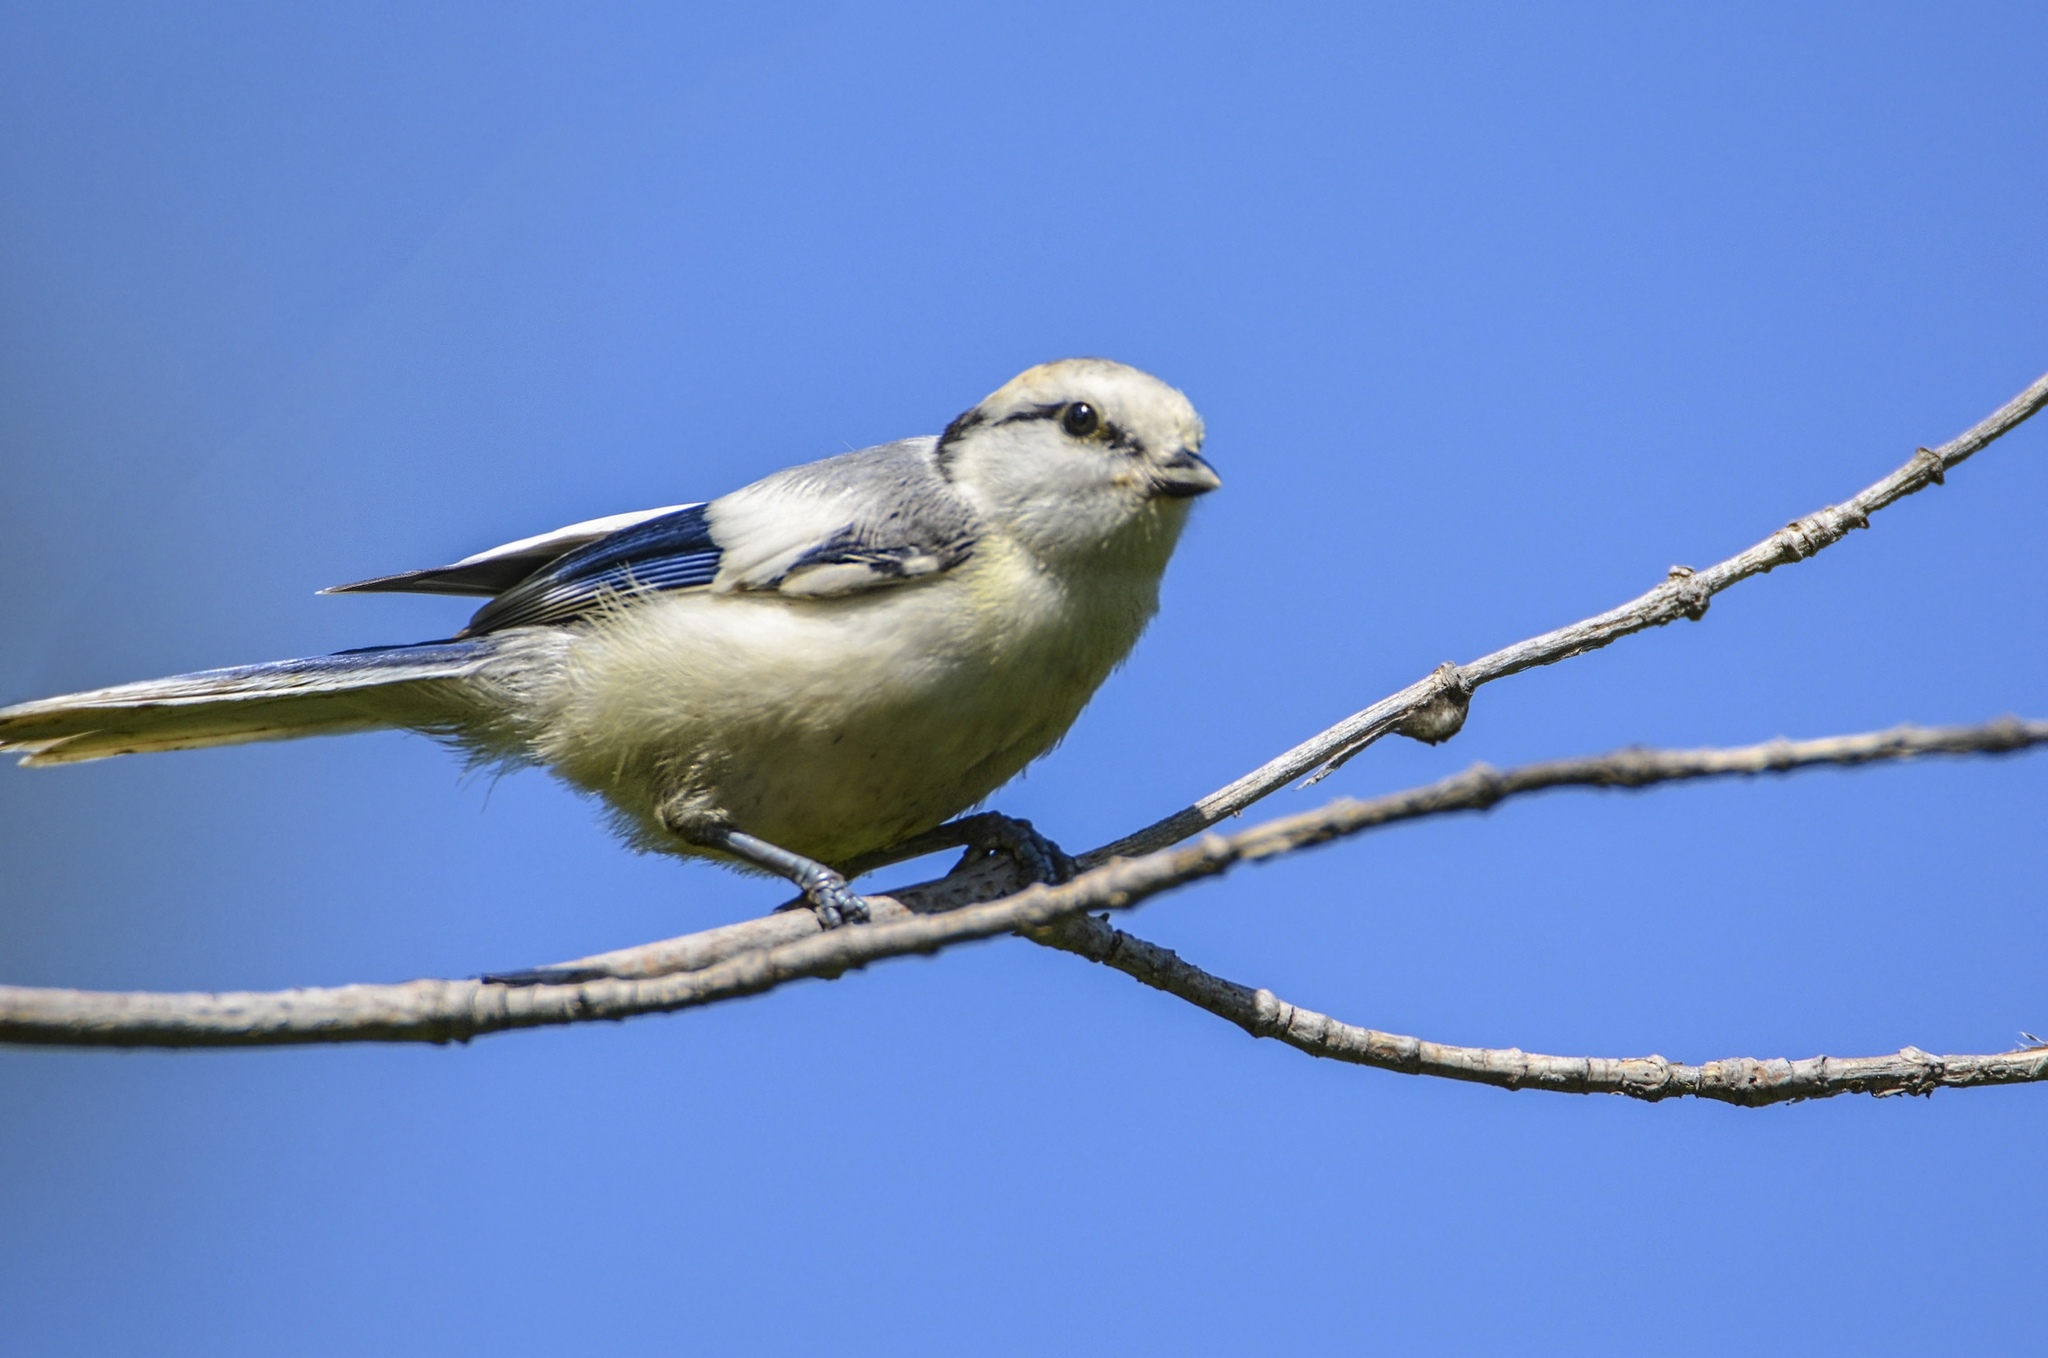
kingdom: Animalia
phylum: Chordata
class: Aves
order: Passeriformes
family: Paridae
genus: Cyanistes
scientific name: Cyanistes cyanus
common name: Azure tit
